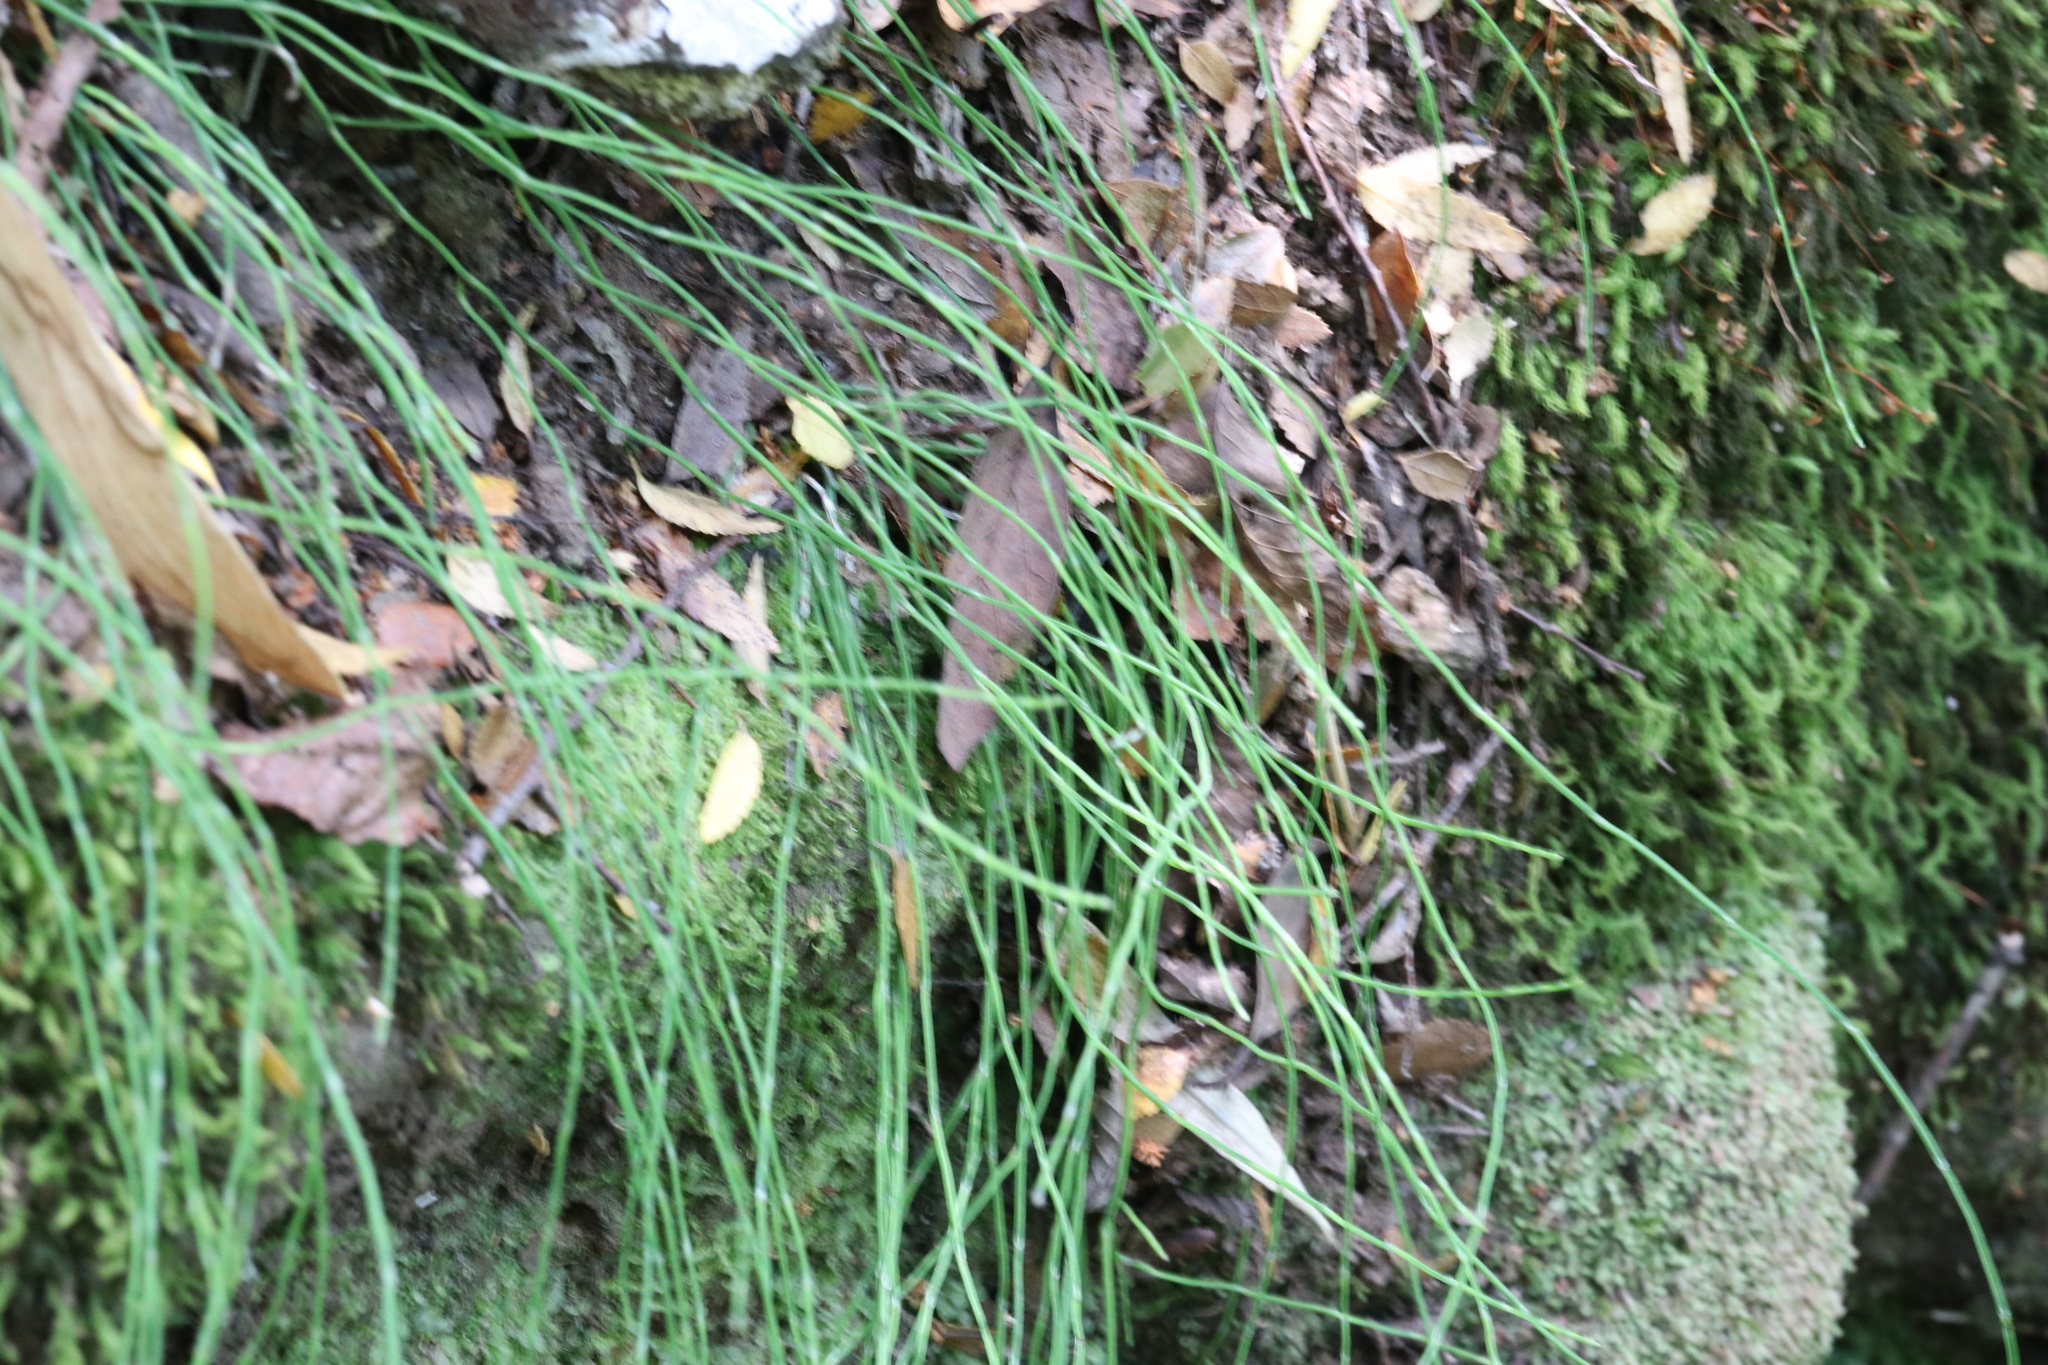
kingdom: Plantae
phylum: Tracheophyta
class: Polypodiopsida
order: Equisetales
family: Equisetaceae
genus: Equisetum
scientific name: Equisetum bogotense
